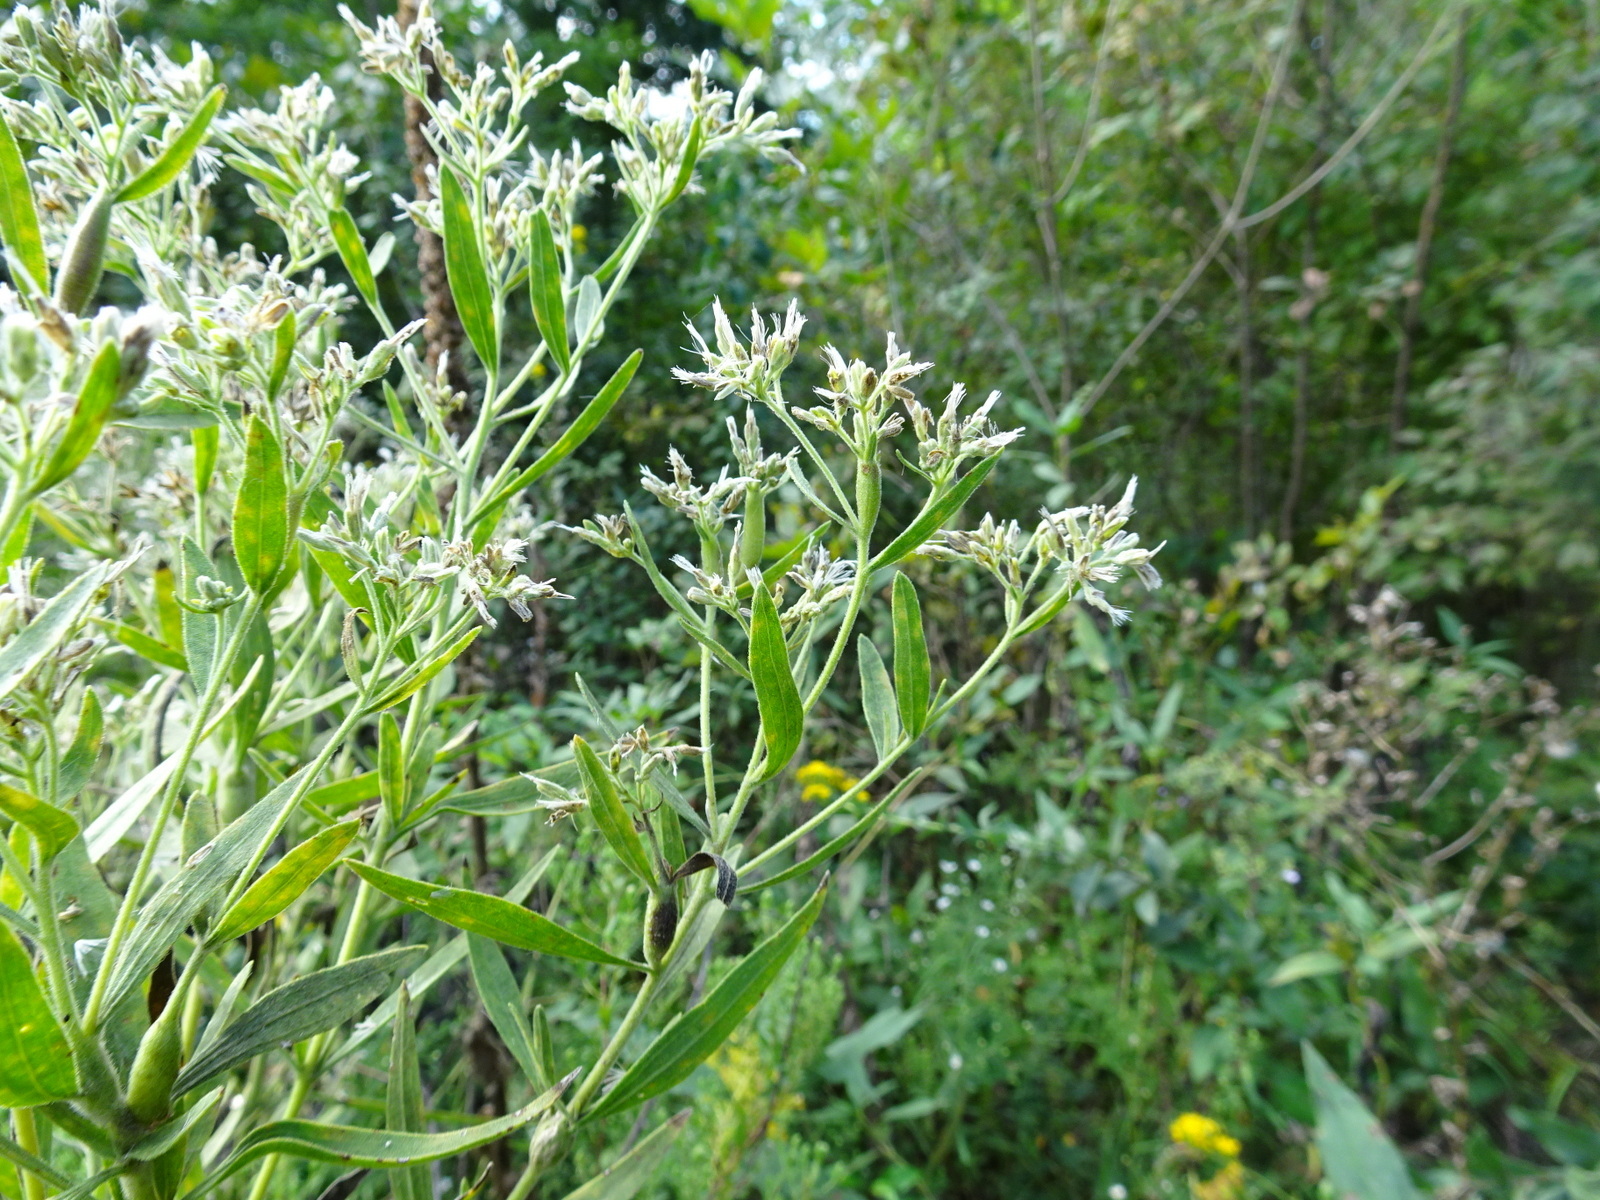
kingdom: Plantae
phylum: Tracheophyta
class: Magnoliopsida
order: Asterales
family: Asteraceae
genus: Eupatorium
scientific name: Eupatorium altissimum
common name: Tall thoroughwort
